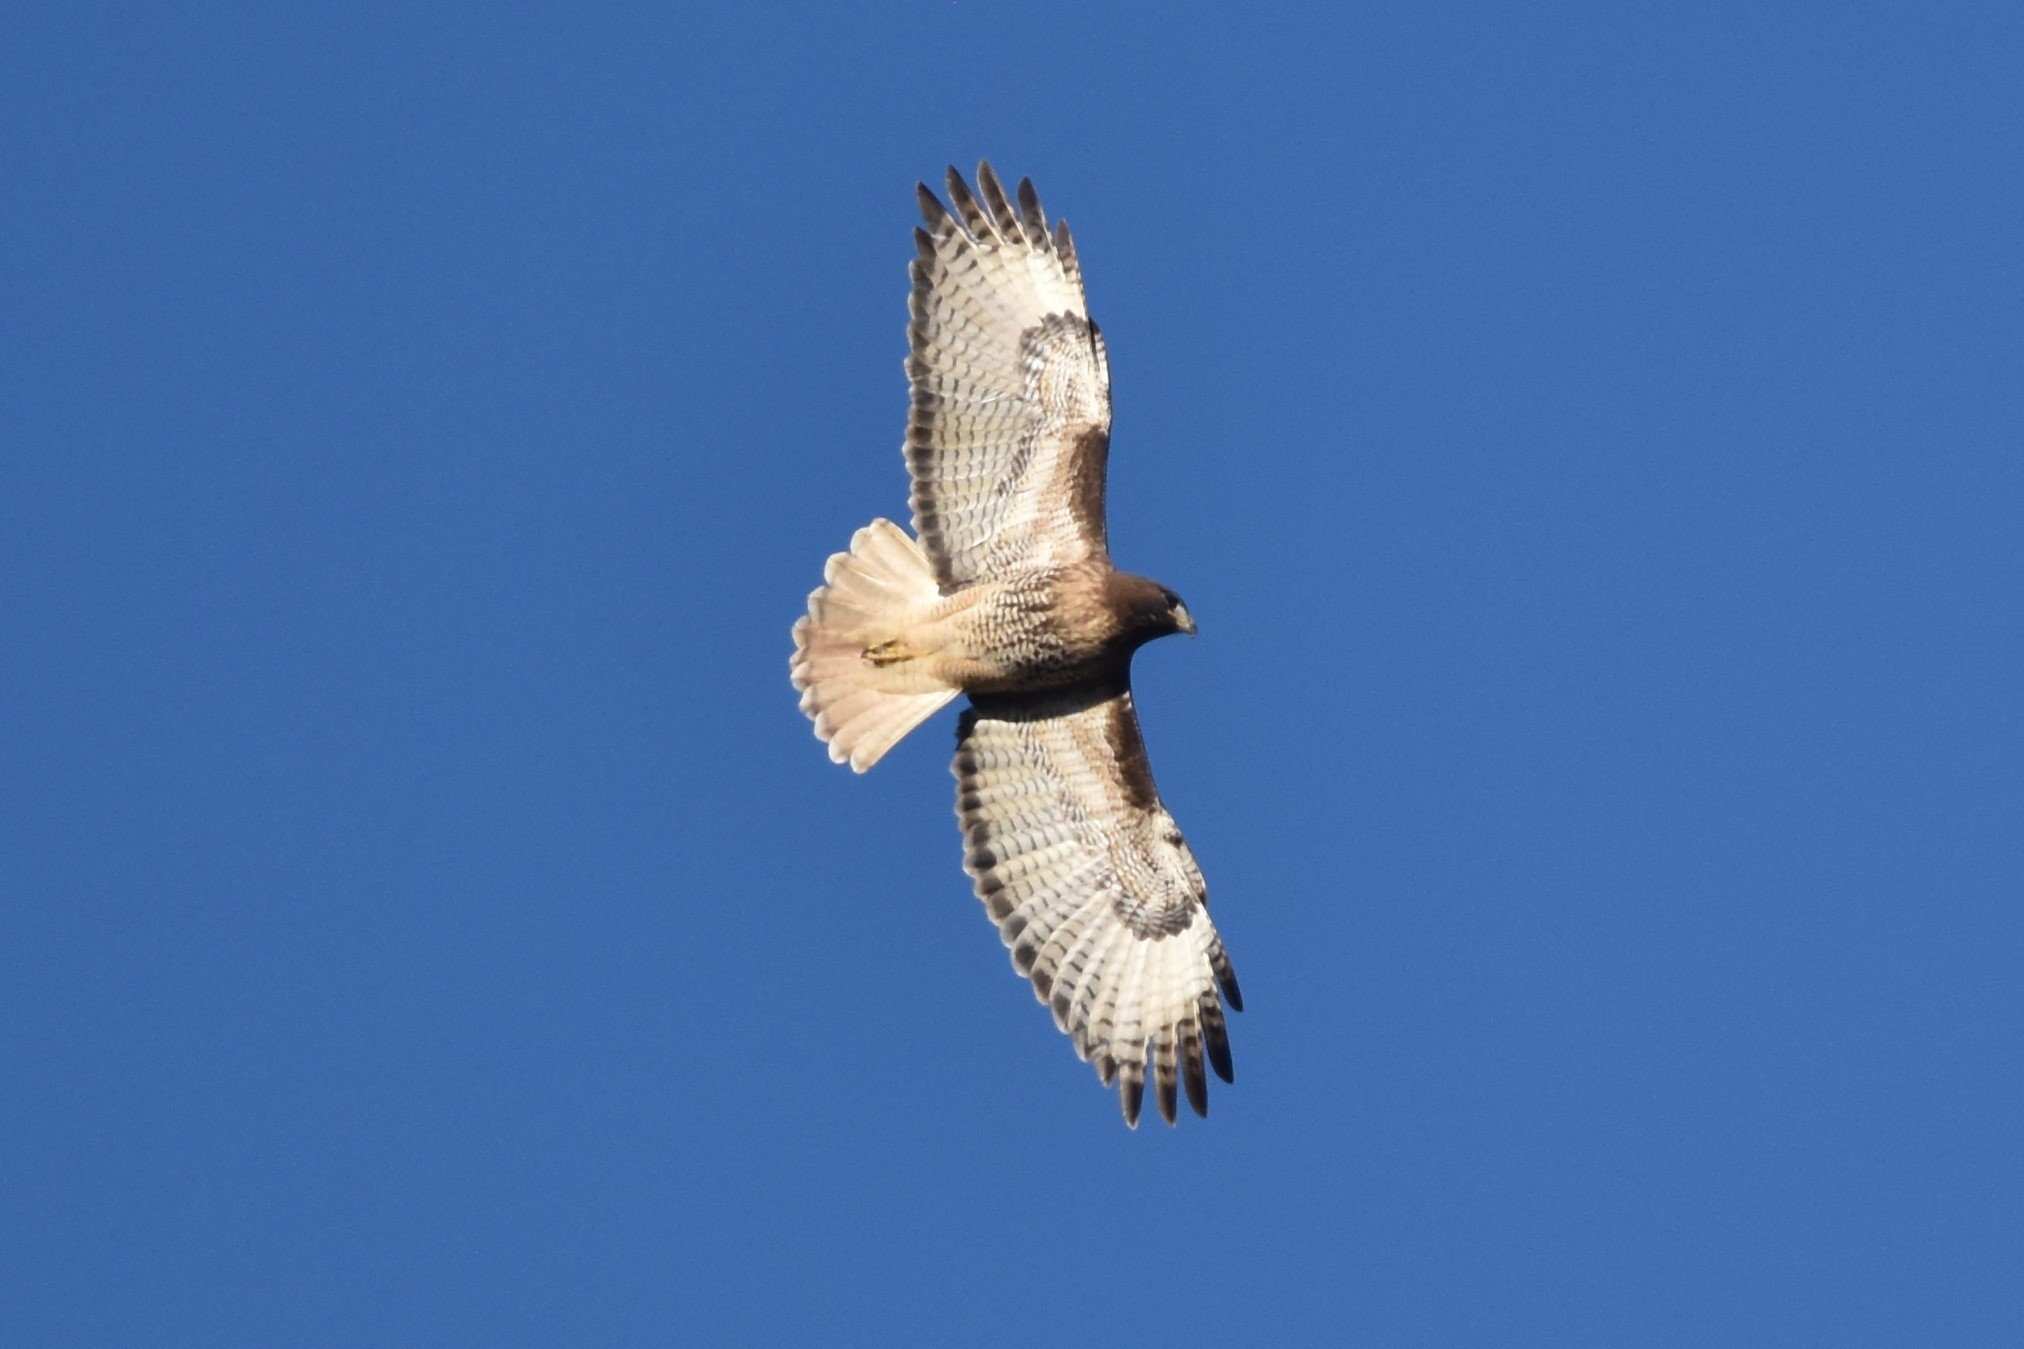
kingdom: Animalia
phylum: Chordata
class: Aves
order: Accipitriformes
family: Accipitridae
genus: Buteo
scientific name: Buteo jamaicensis
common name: Red-tailed hawk
